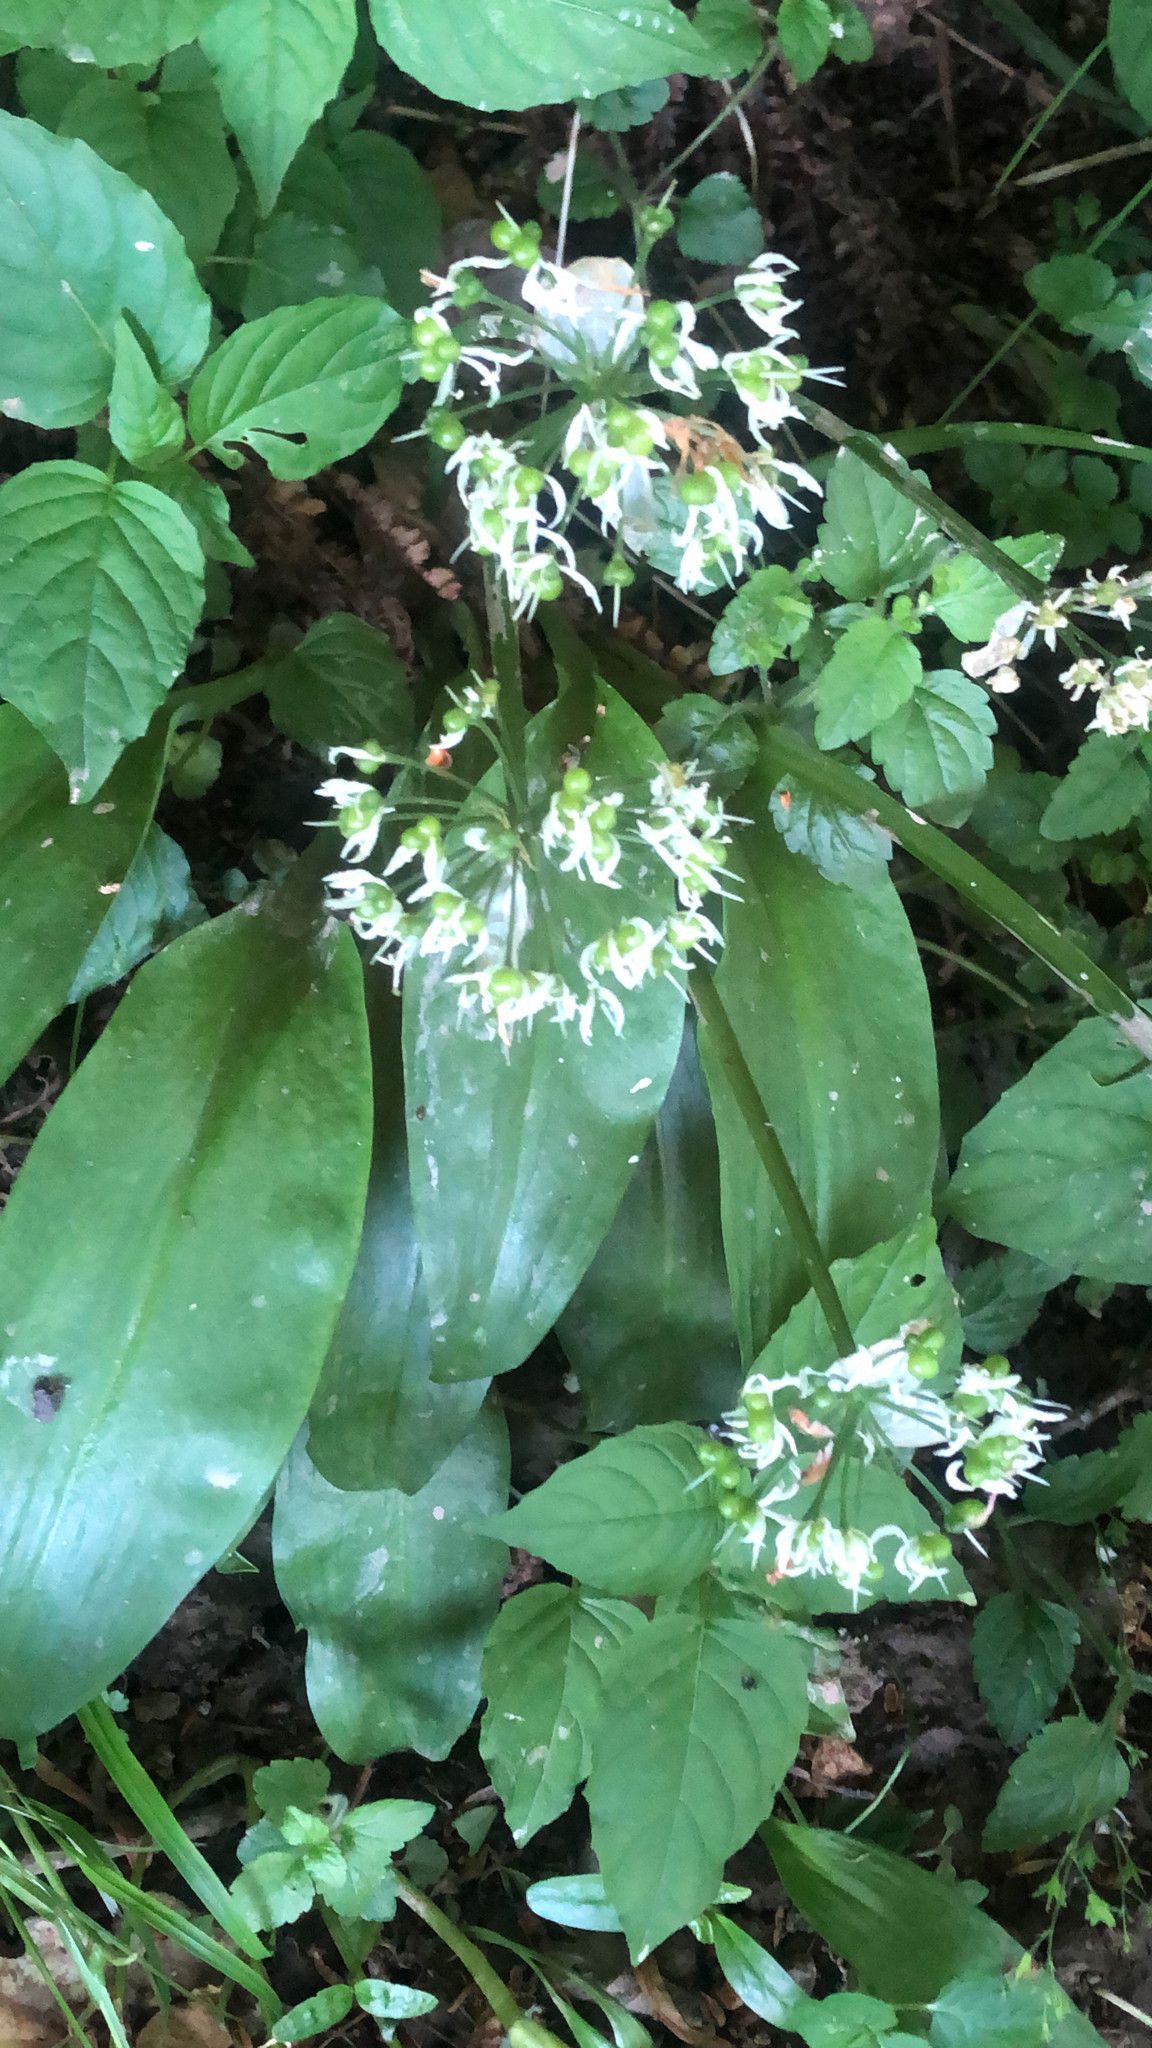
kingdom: Plantae
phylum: Tracheophyta
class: Liliopsida
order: Asparagales
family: Amaryllidaceae
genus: Allium
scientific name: Allium ursinum
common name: Ramsons
